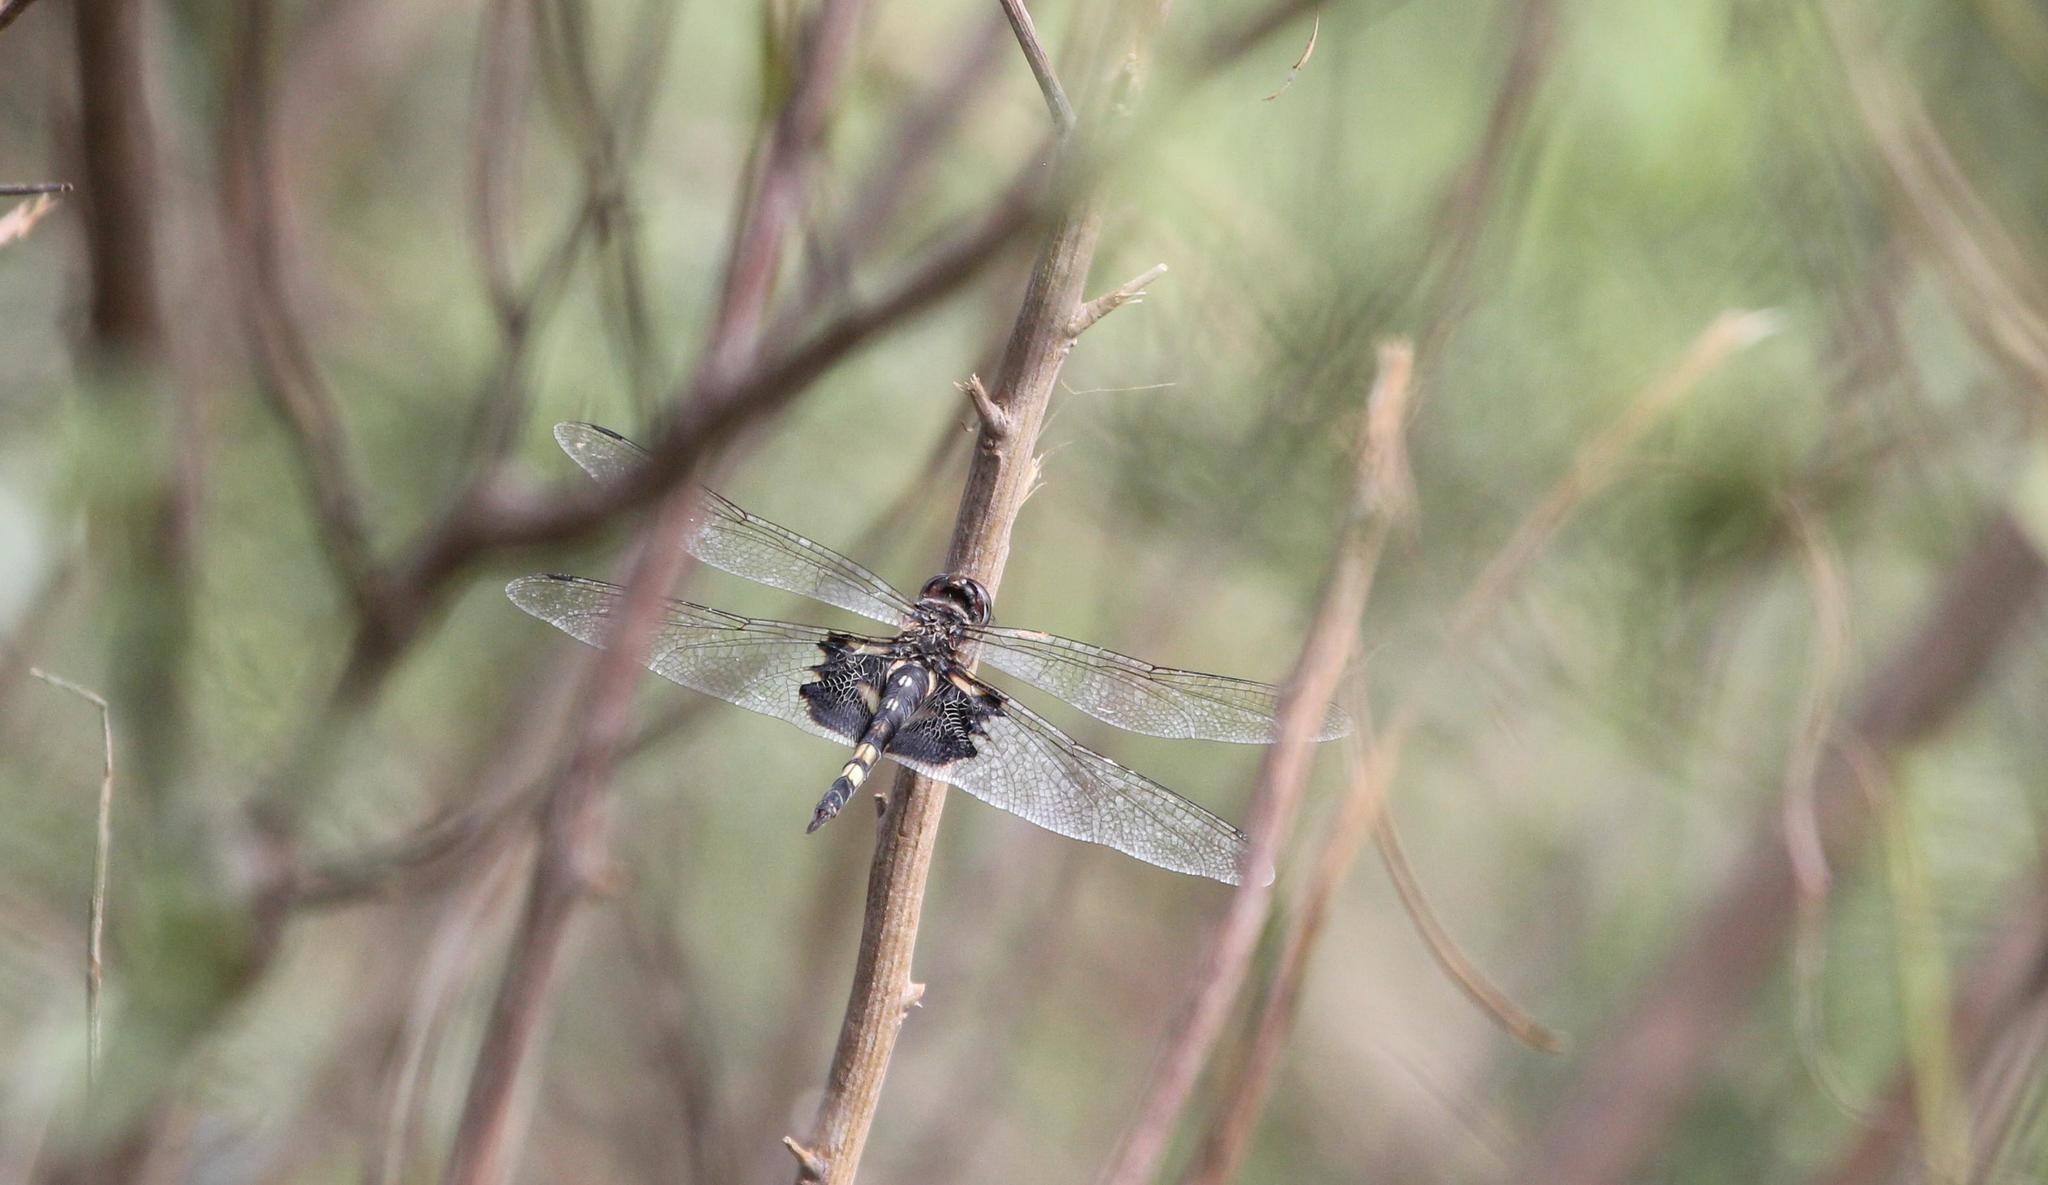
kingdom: Animalia
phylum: Arthropoda
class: Insecta
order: Odonata
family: Libellulidae
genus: Tramea
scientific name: Tramea lacerata
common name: Black saddlebags
